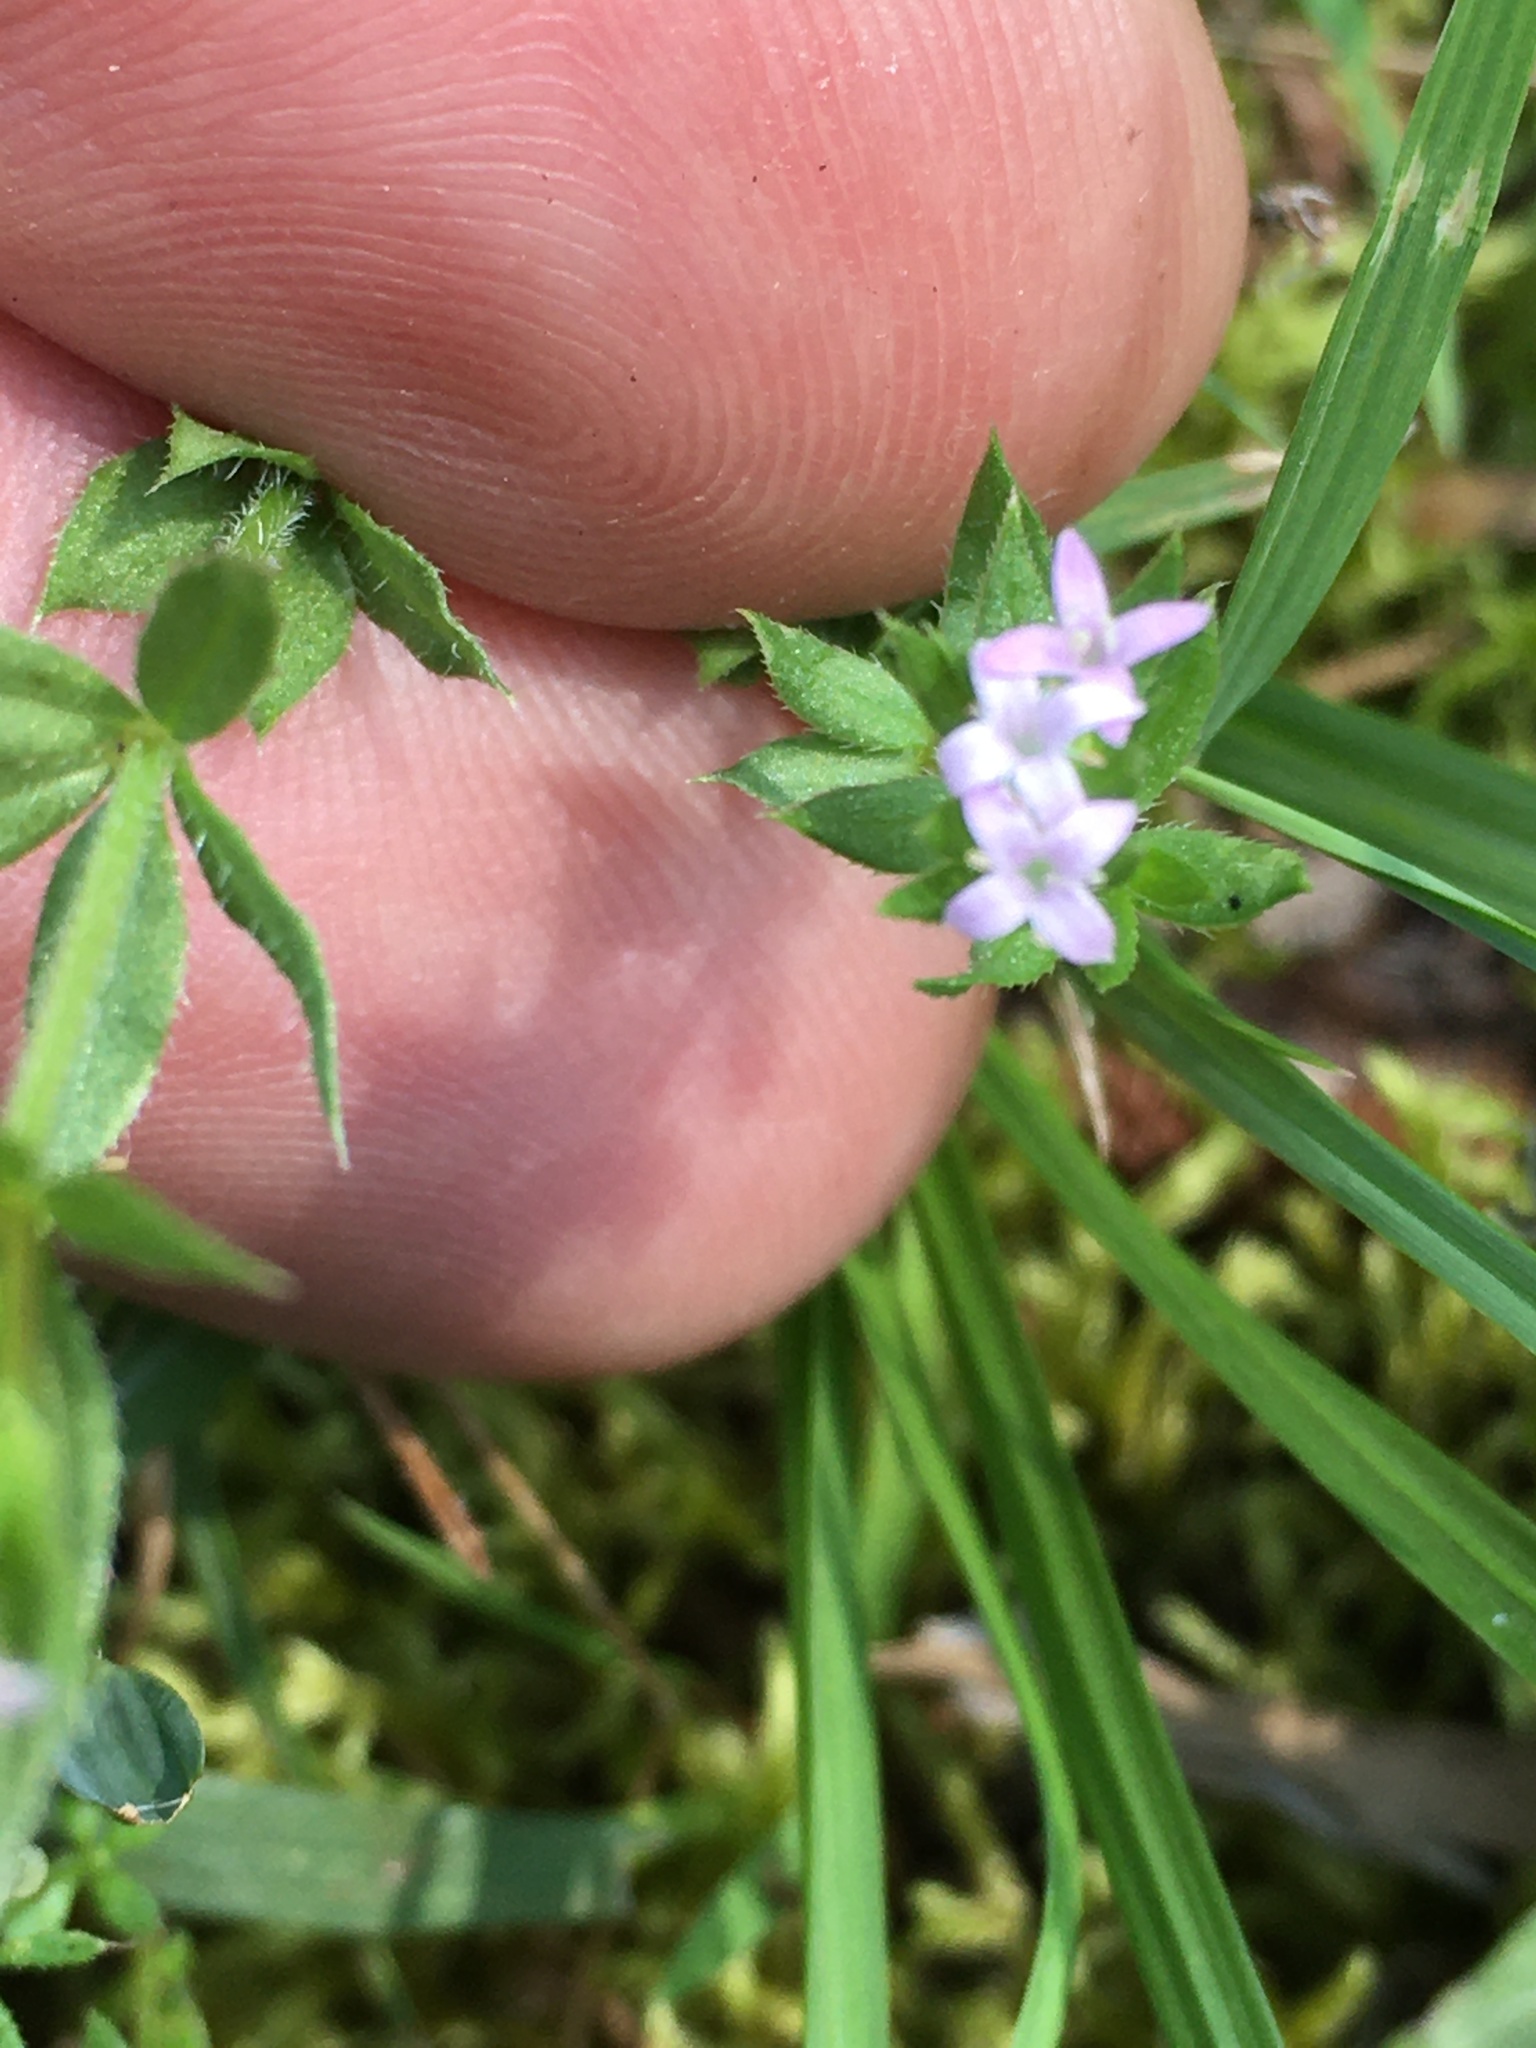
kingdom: Plantae
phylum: Tracheophyta
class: Magnoliopsida
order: Gentianales
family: Rubiaceae
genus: Sherardia
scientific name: Sherardia arvensis
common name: Field madder
